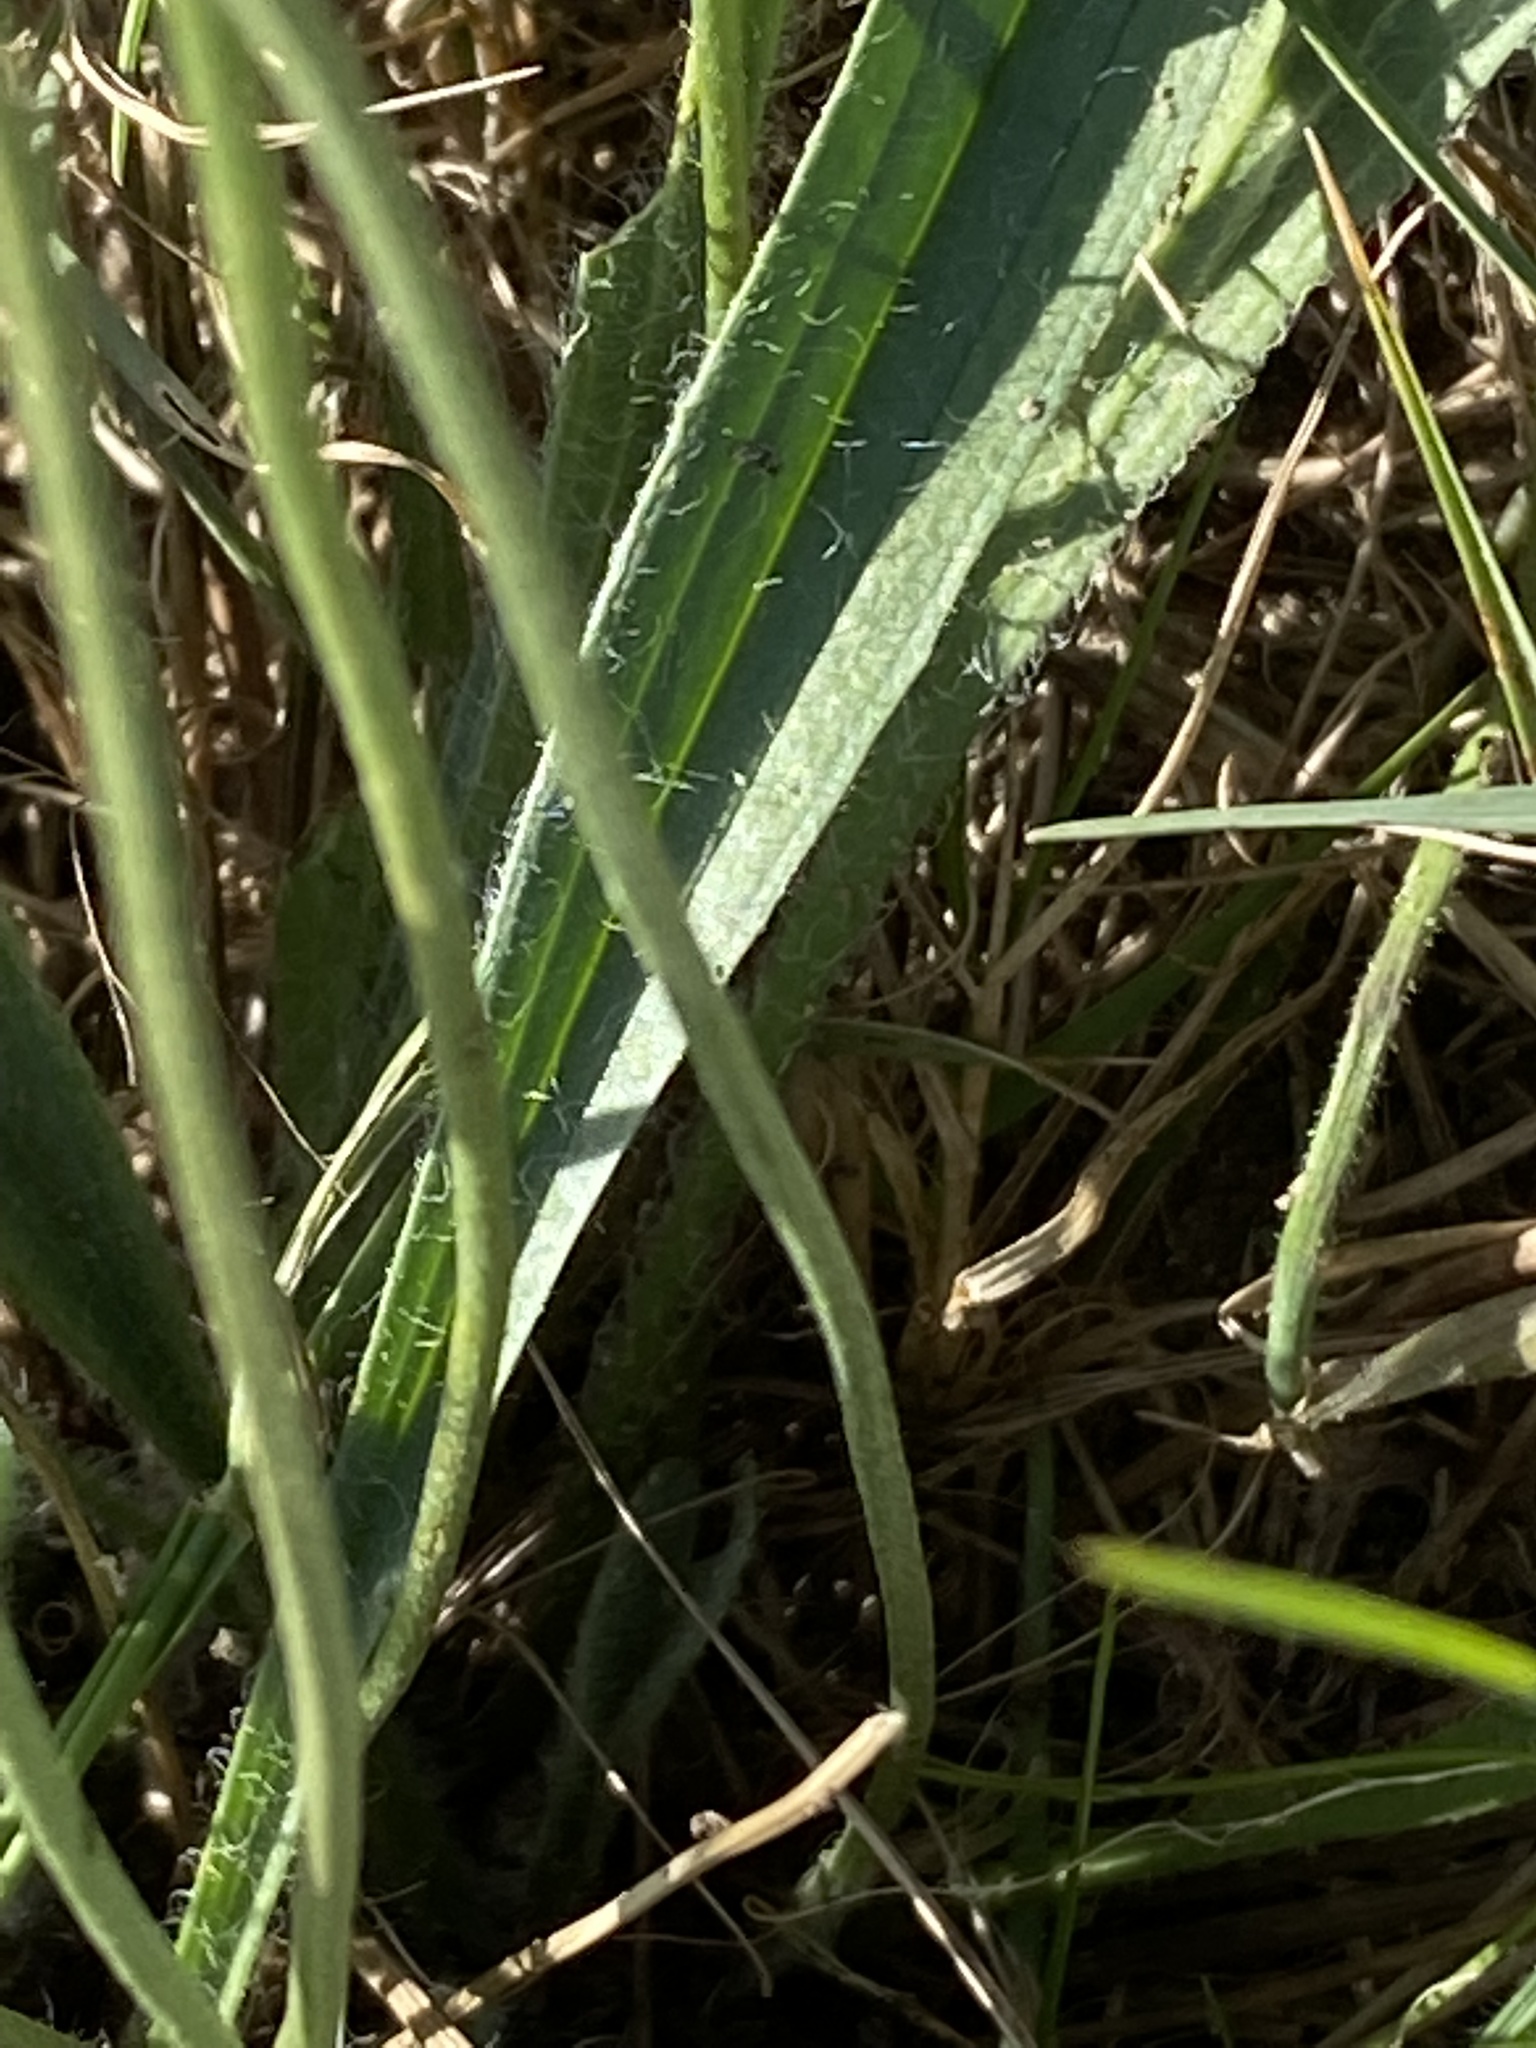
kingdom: Plantae
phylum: Tracheophyta
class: Magnoliopsida
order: Lamiales
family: Plantaginaceae
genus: Plantago
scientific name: Plantago lanceolata
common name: Ribwort plantain
